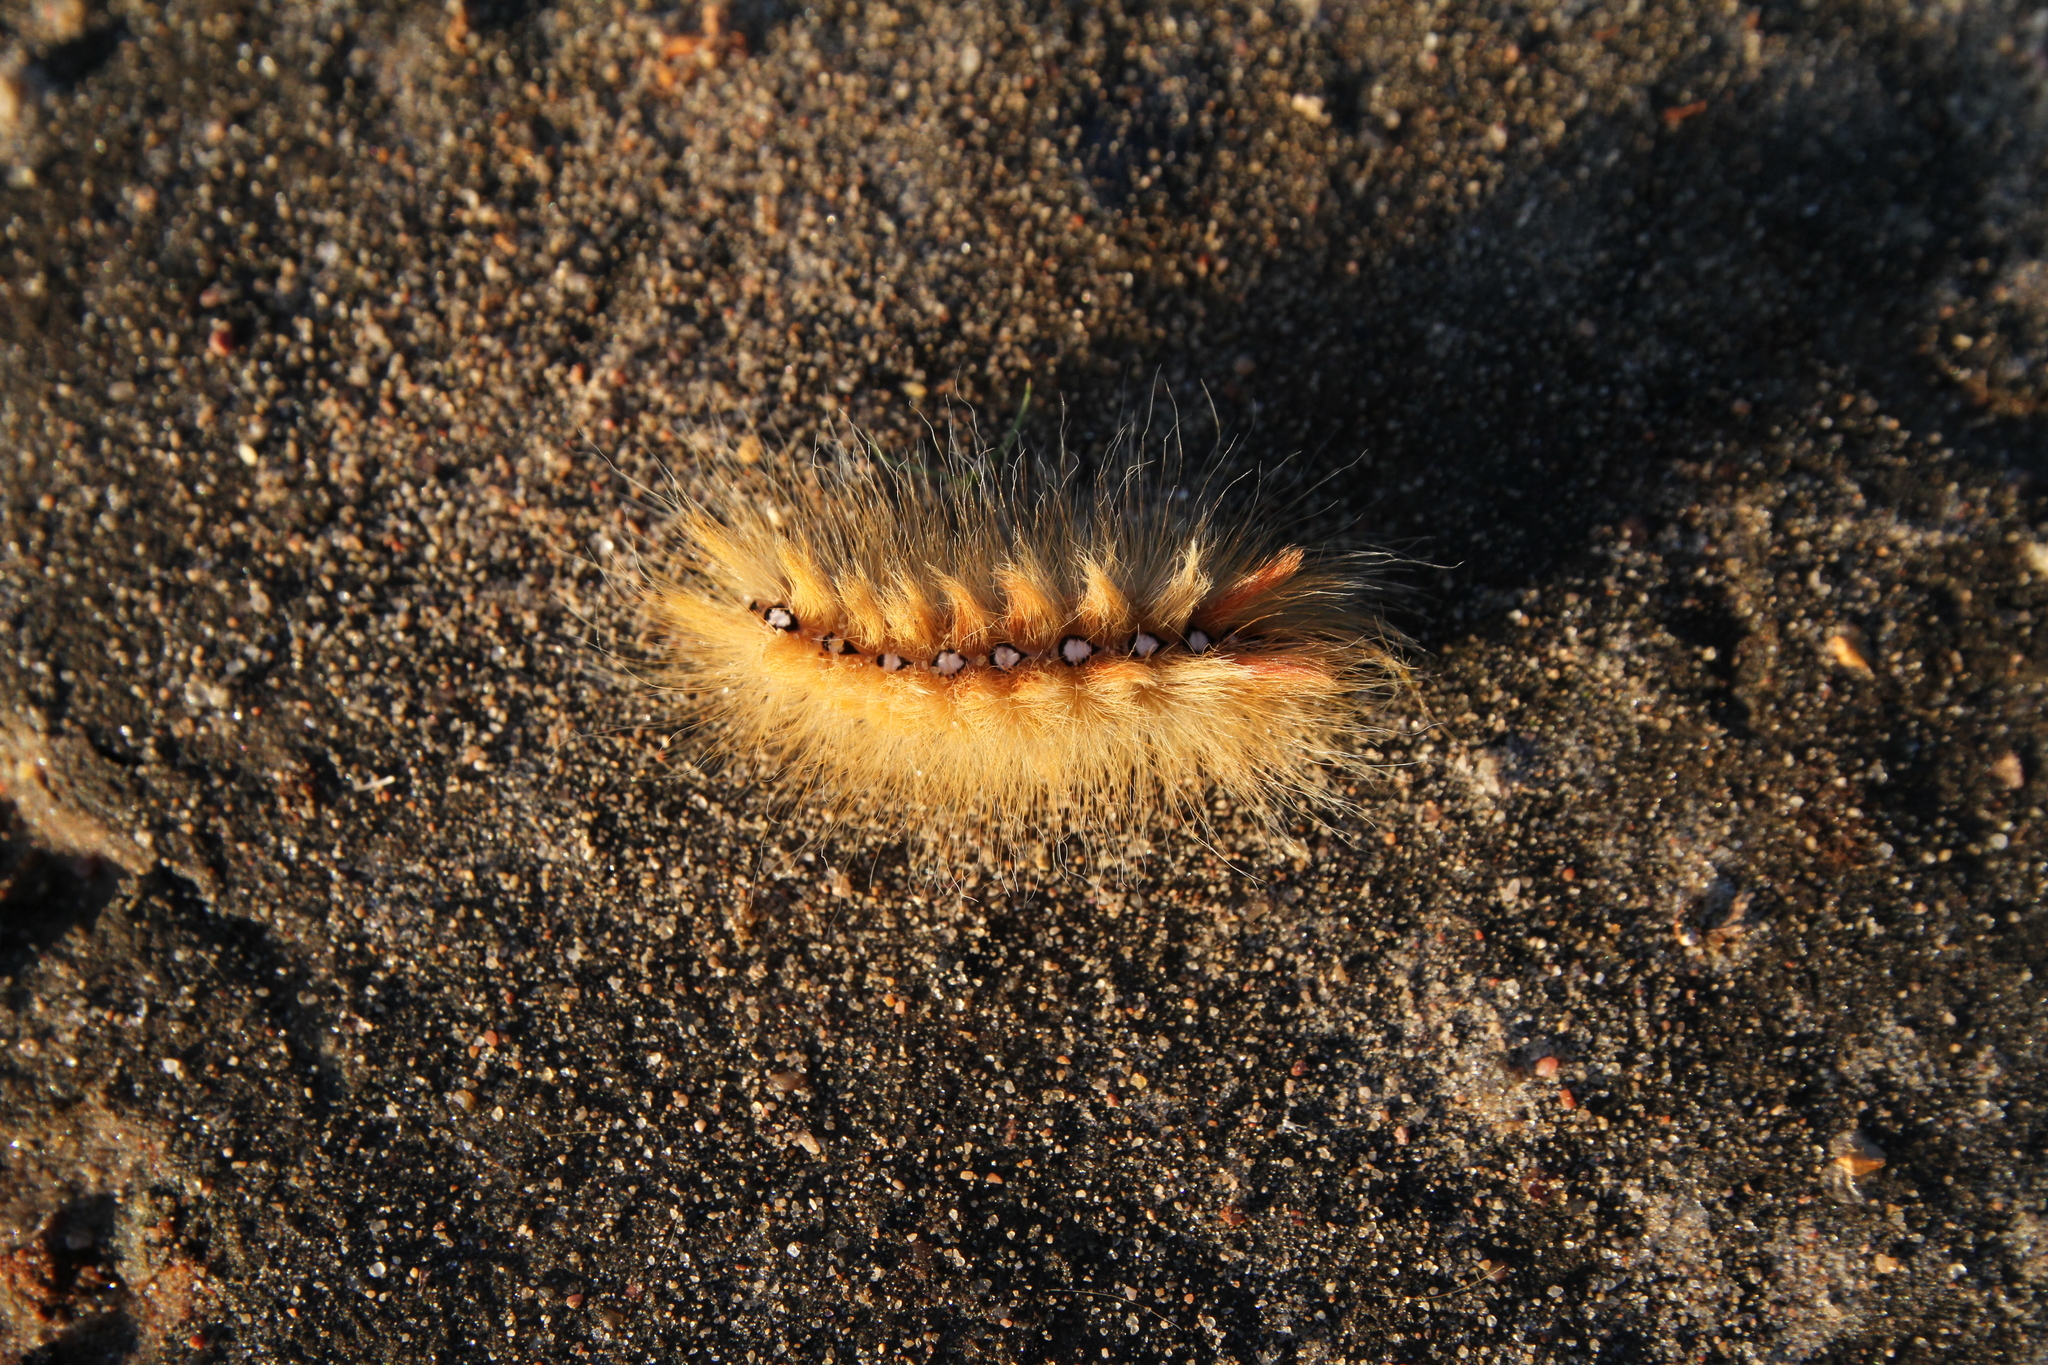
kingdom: Animalia
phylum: Arthropoda
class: Insecta
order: Lepidoptera
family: Noctuidae
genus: Acronicta
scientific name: Acronicta aceris
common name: Sycamore
